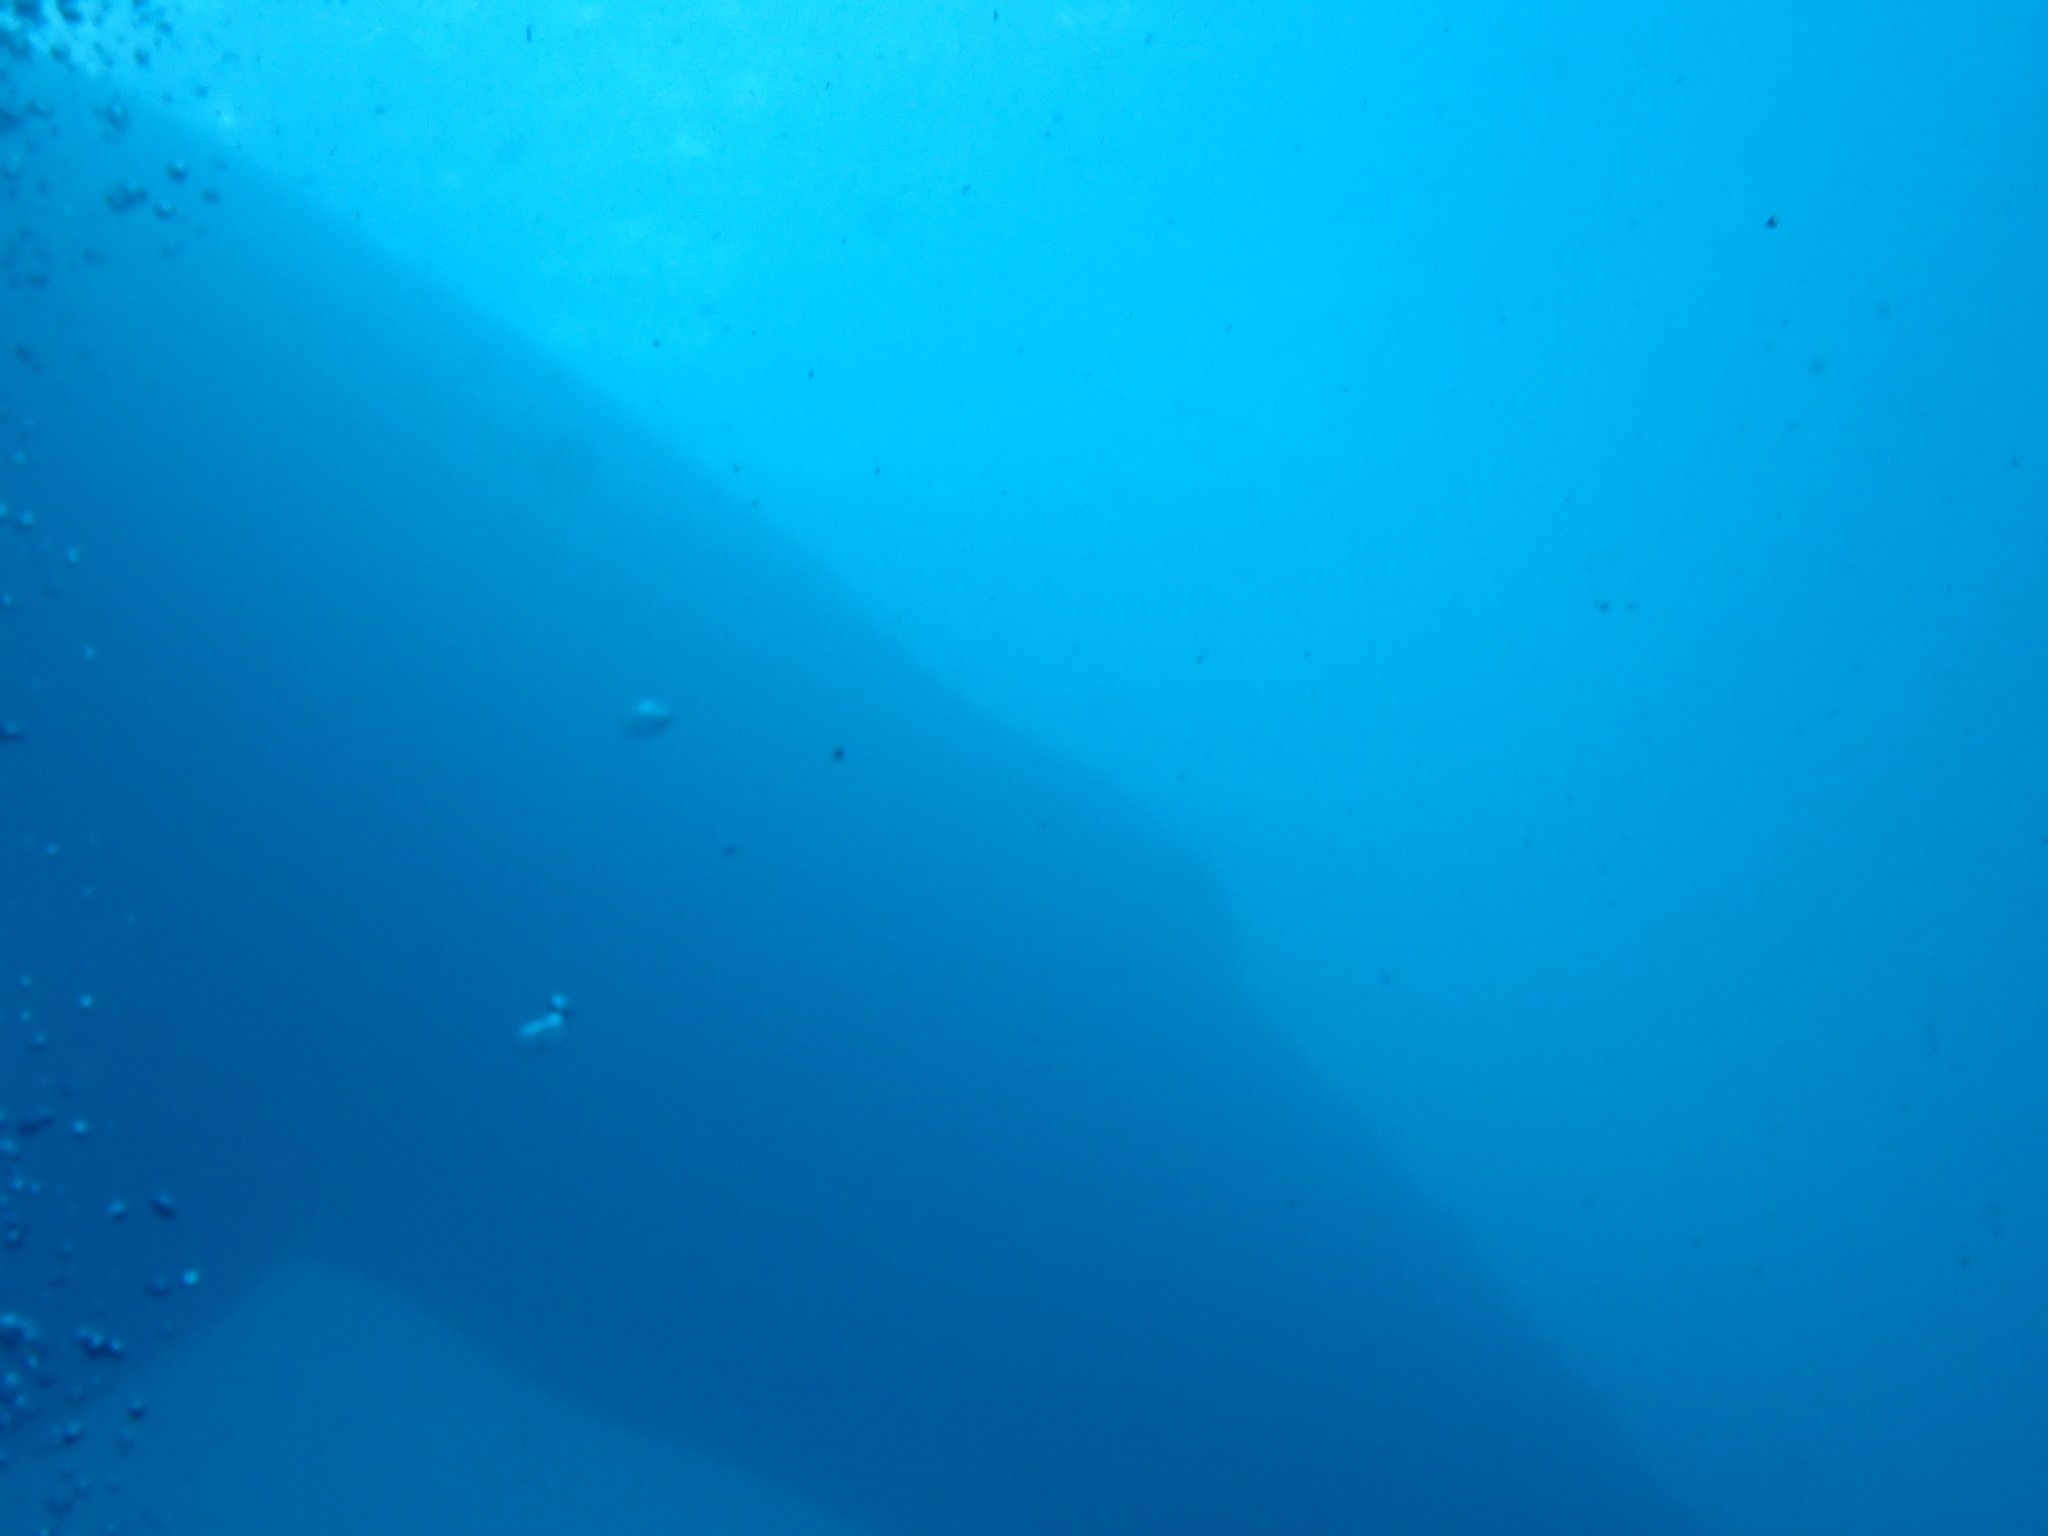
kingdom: Animalia
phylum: Chordata
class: Mammalia
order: Cetacea
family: Balaenopteridae
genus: Megaptera
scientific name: Megaptera novaeangliae
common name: Humpback whale
